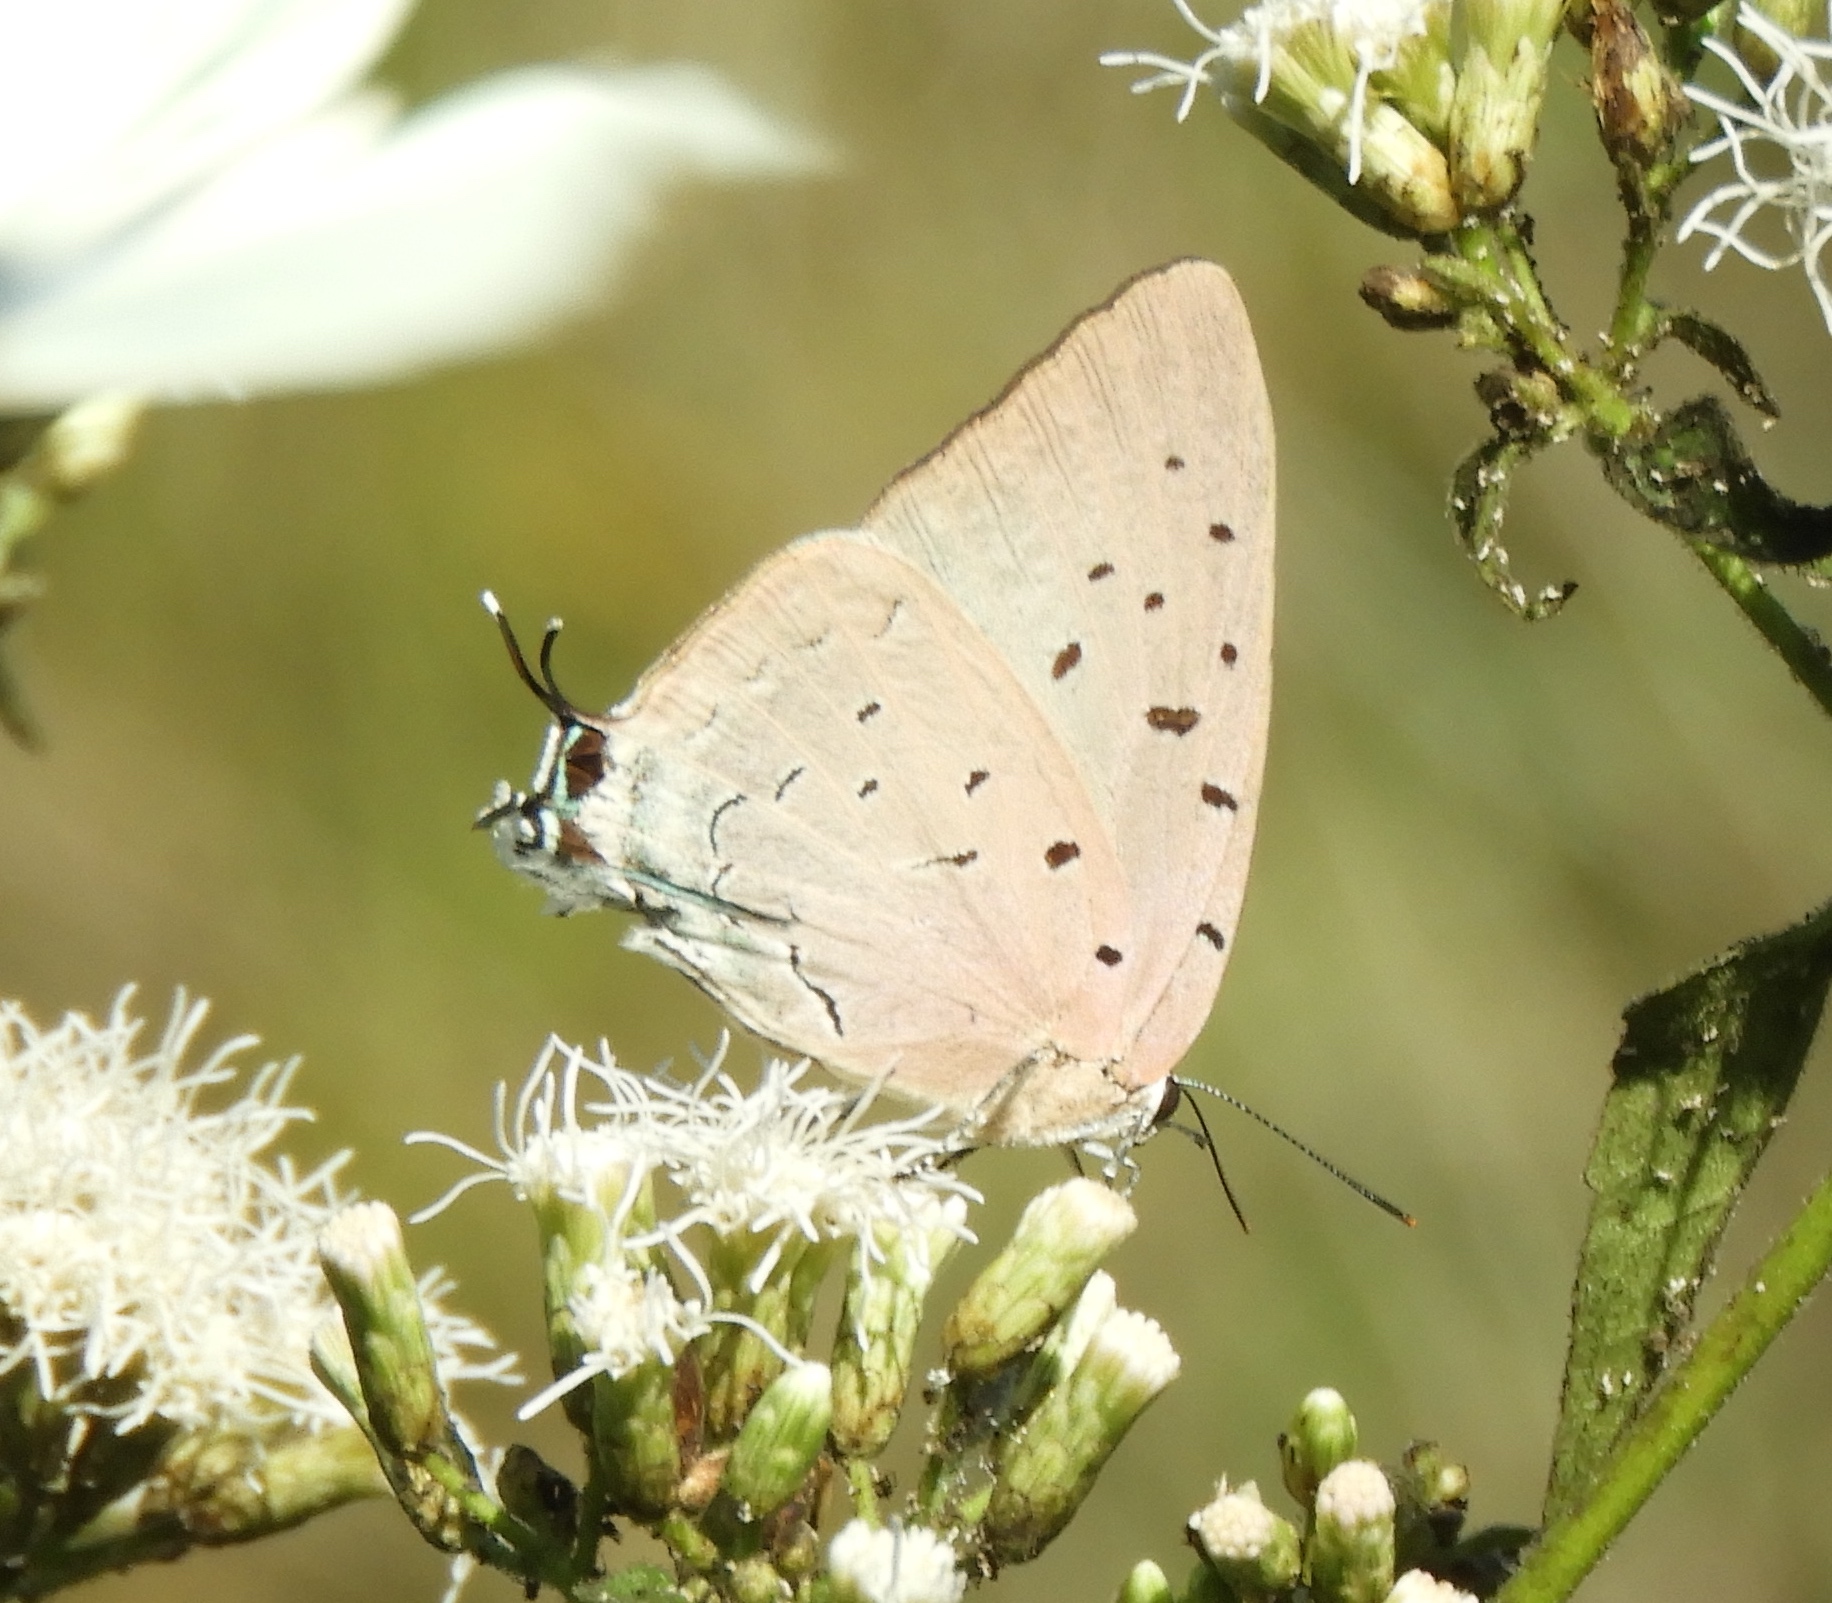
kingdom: Animalia
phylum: Arthropoda
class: Insecta
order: Lepidoptera
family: Lycaenidae
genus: Pseudolycaena
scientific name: Pseudolycaena damo
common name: Sky-blue hairstreak
